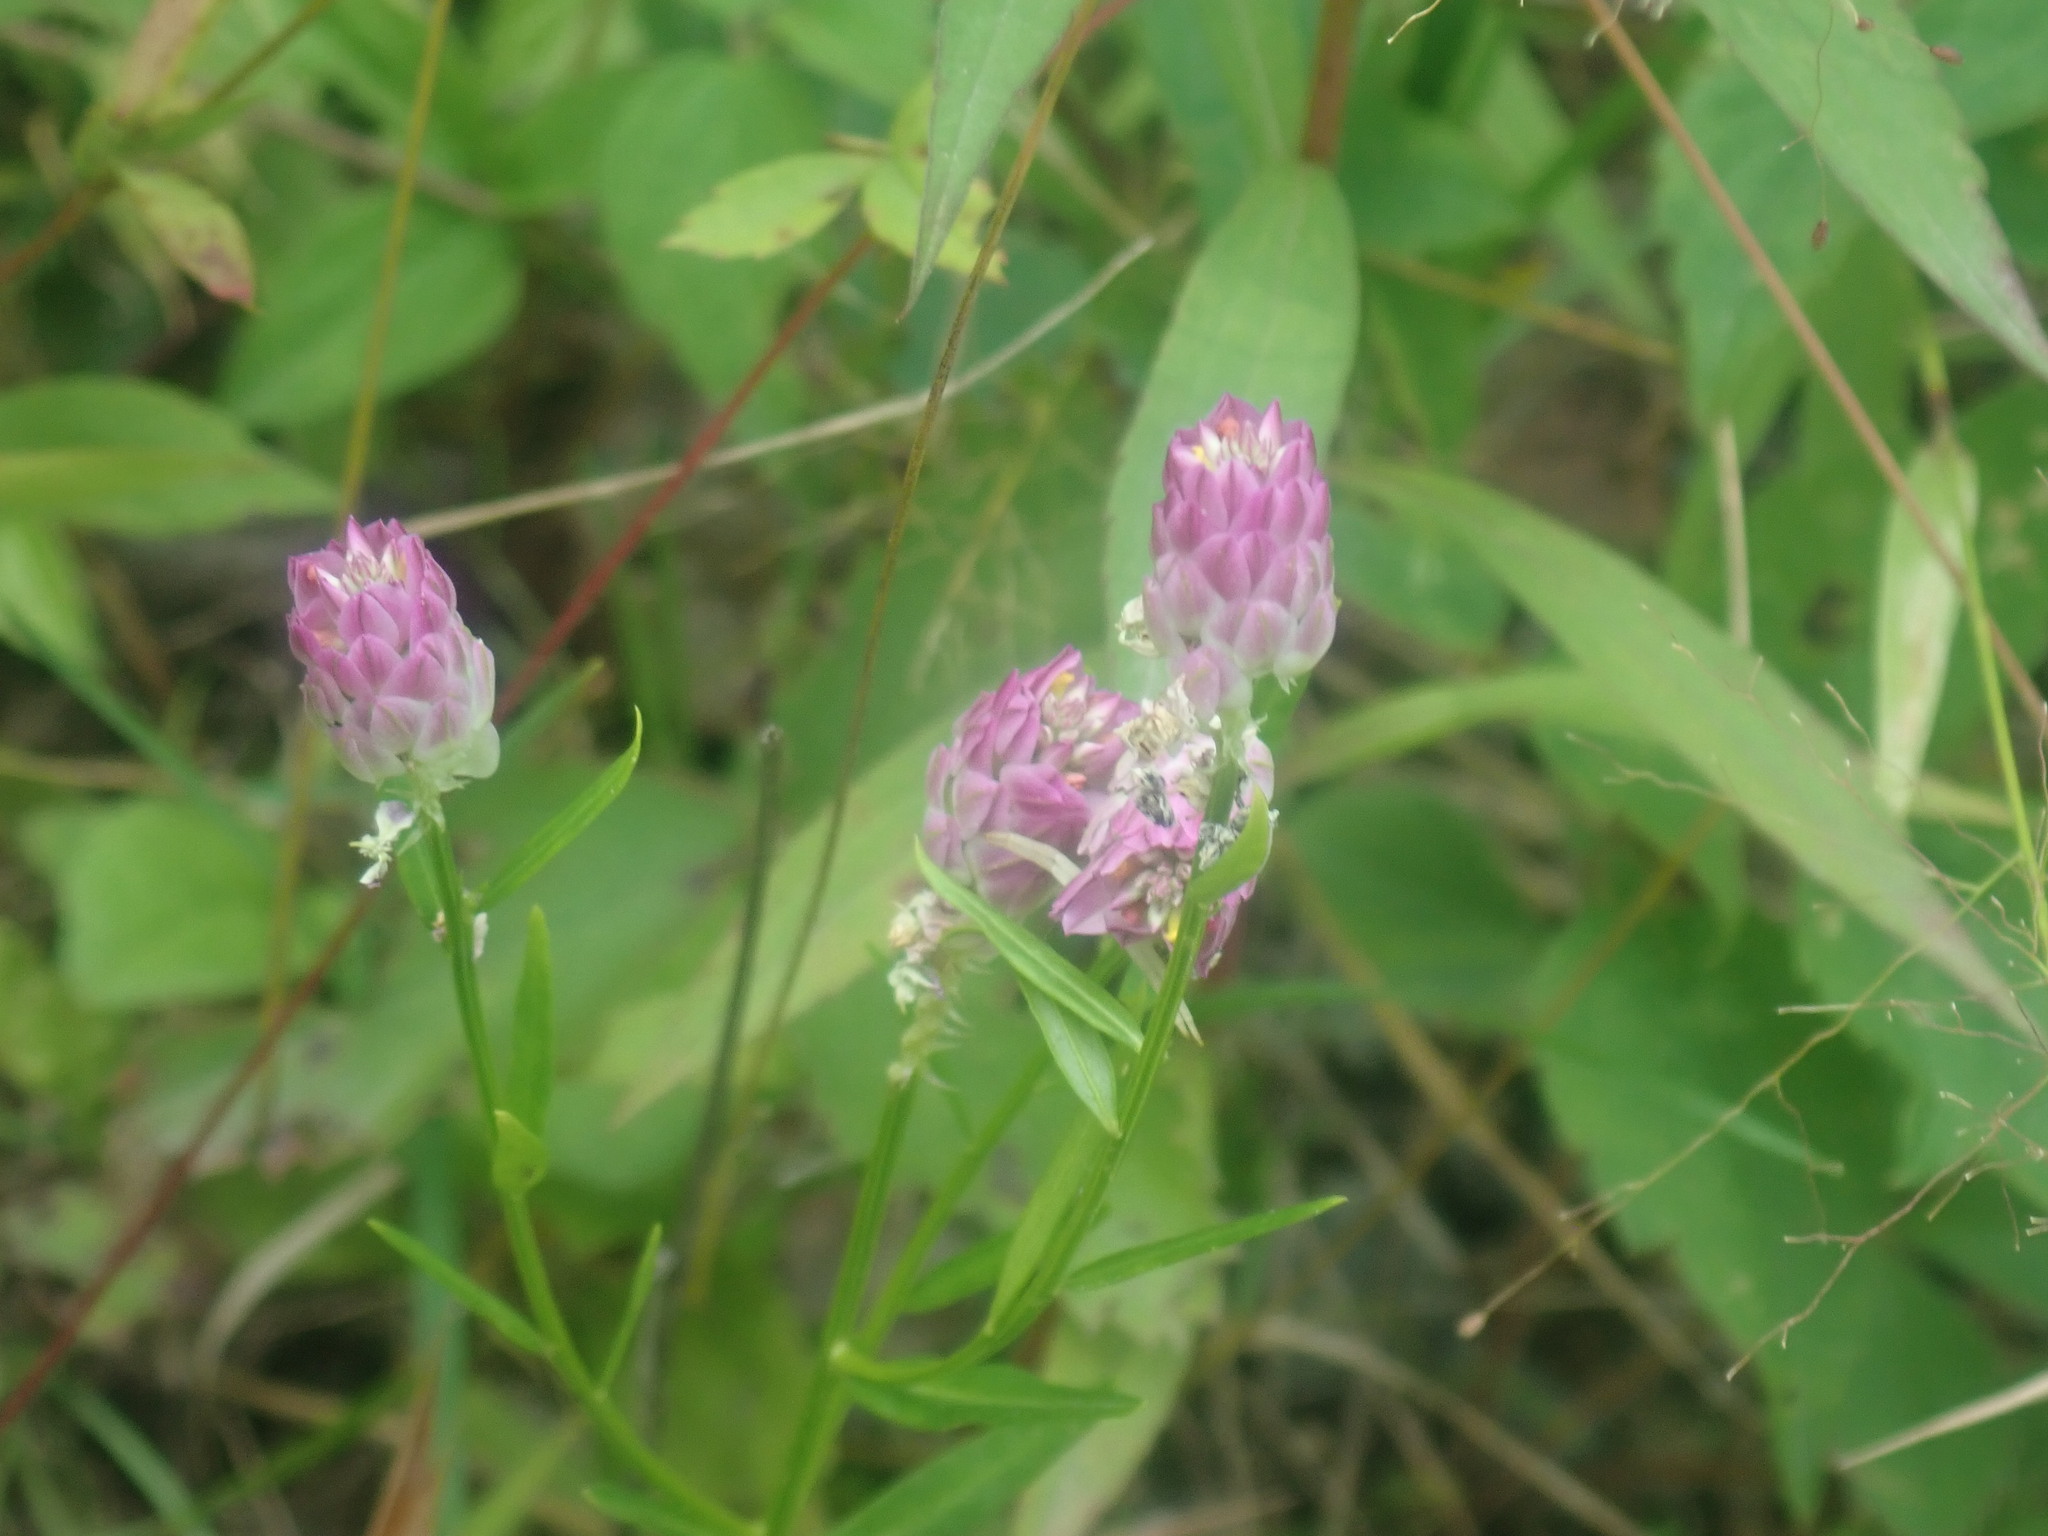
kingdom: Plantae
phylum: Tracheophyta
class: Magnoliopsida
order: Fabales
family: Polygalaceae
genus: Polygala
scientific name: Polygala sanguinea
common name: Blood milkwort
